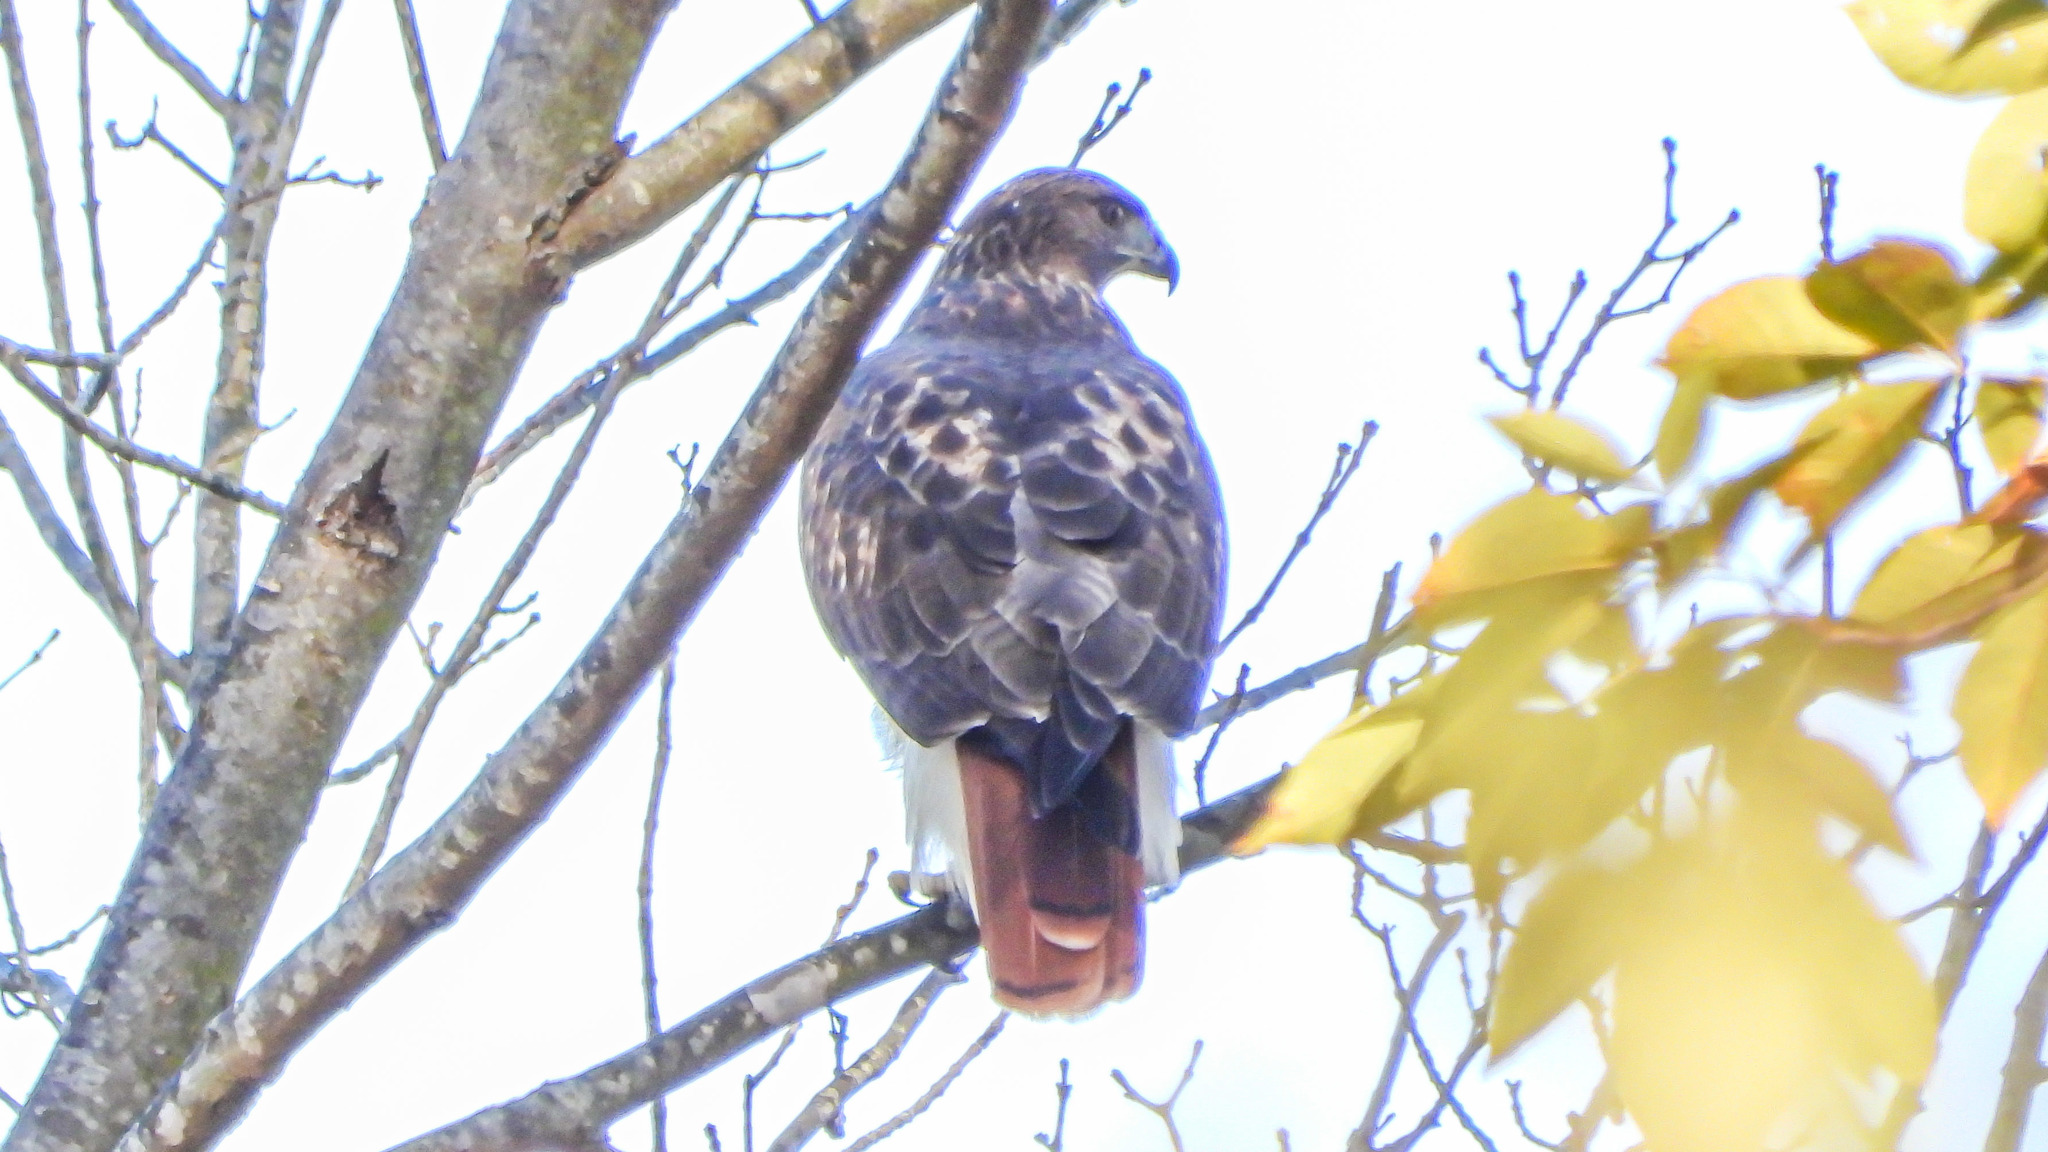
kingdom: Animalia
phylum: Chordata
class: Aves
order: Accipitriformes
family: Accipitridae
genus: Buteo
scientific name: Buteo jamaicensis
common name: Red-tailed hawk
